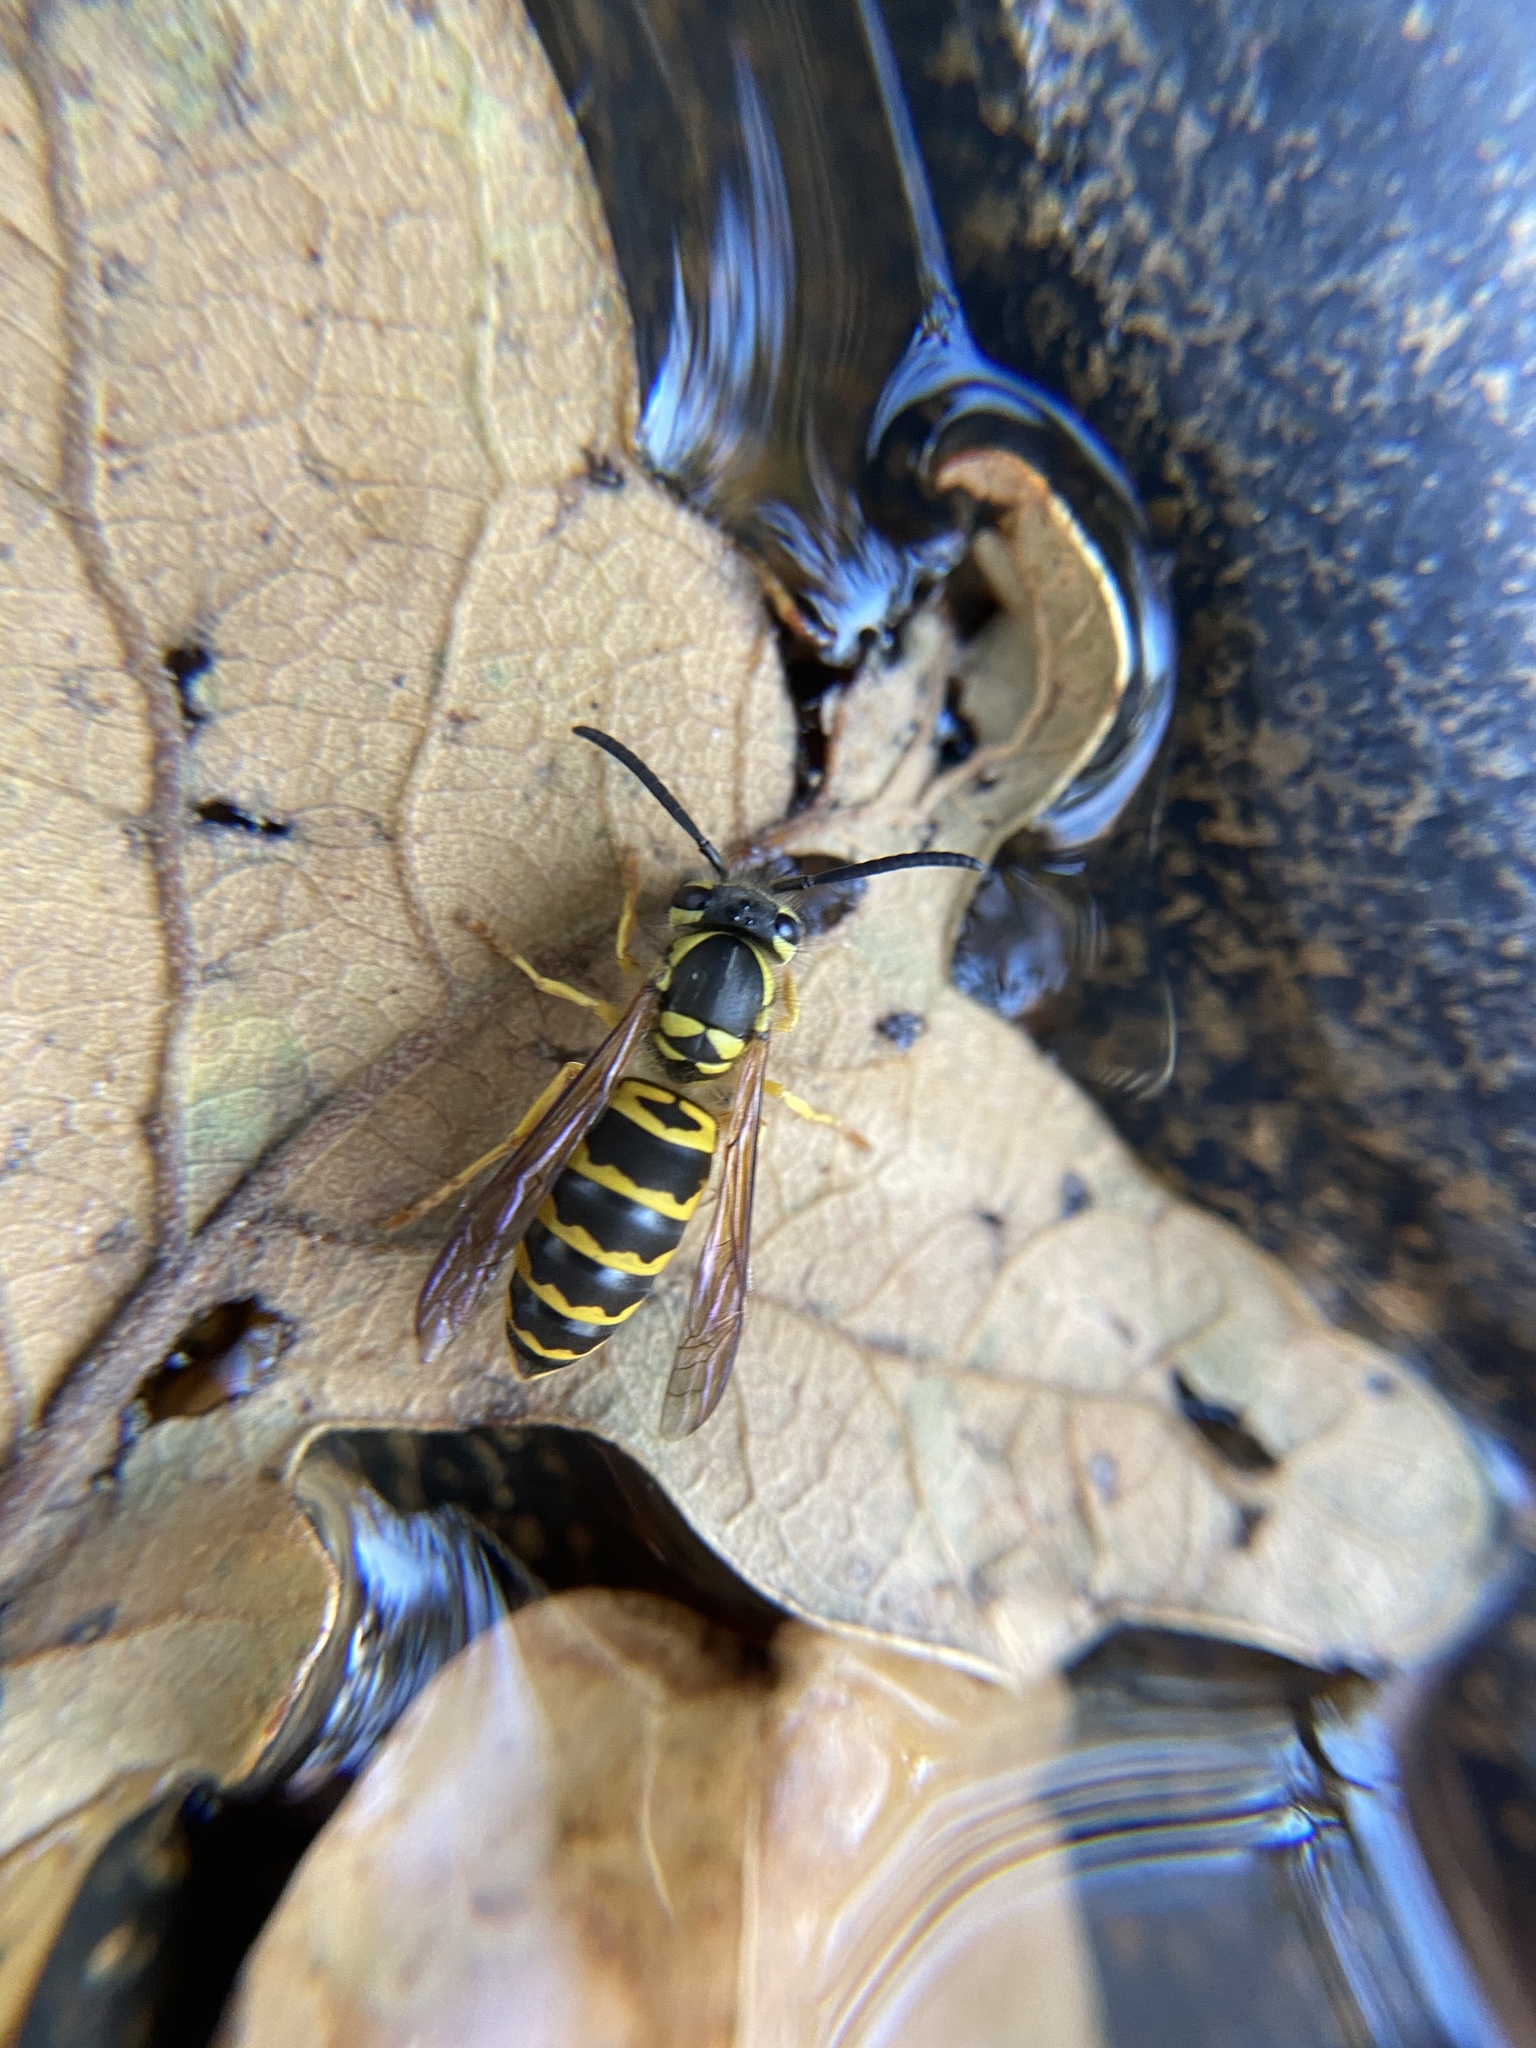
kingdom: Animalia
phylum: Arthropoda
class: Insecta
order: Hymenoptera
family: Vespidae
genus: Vespula
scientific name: Vespula maculifrons
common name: Eastern yellowjacket
